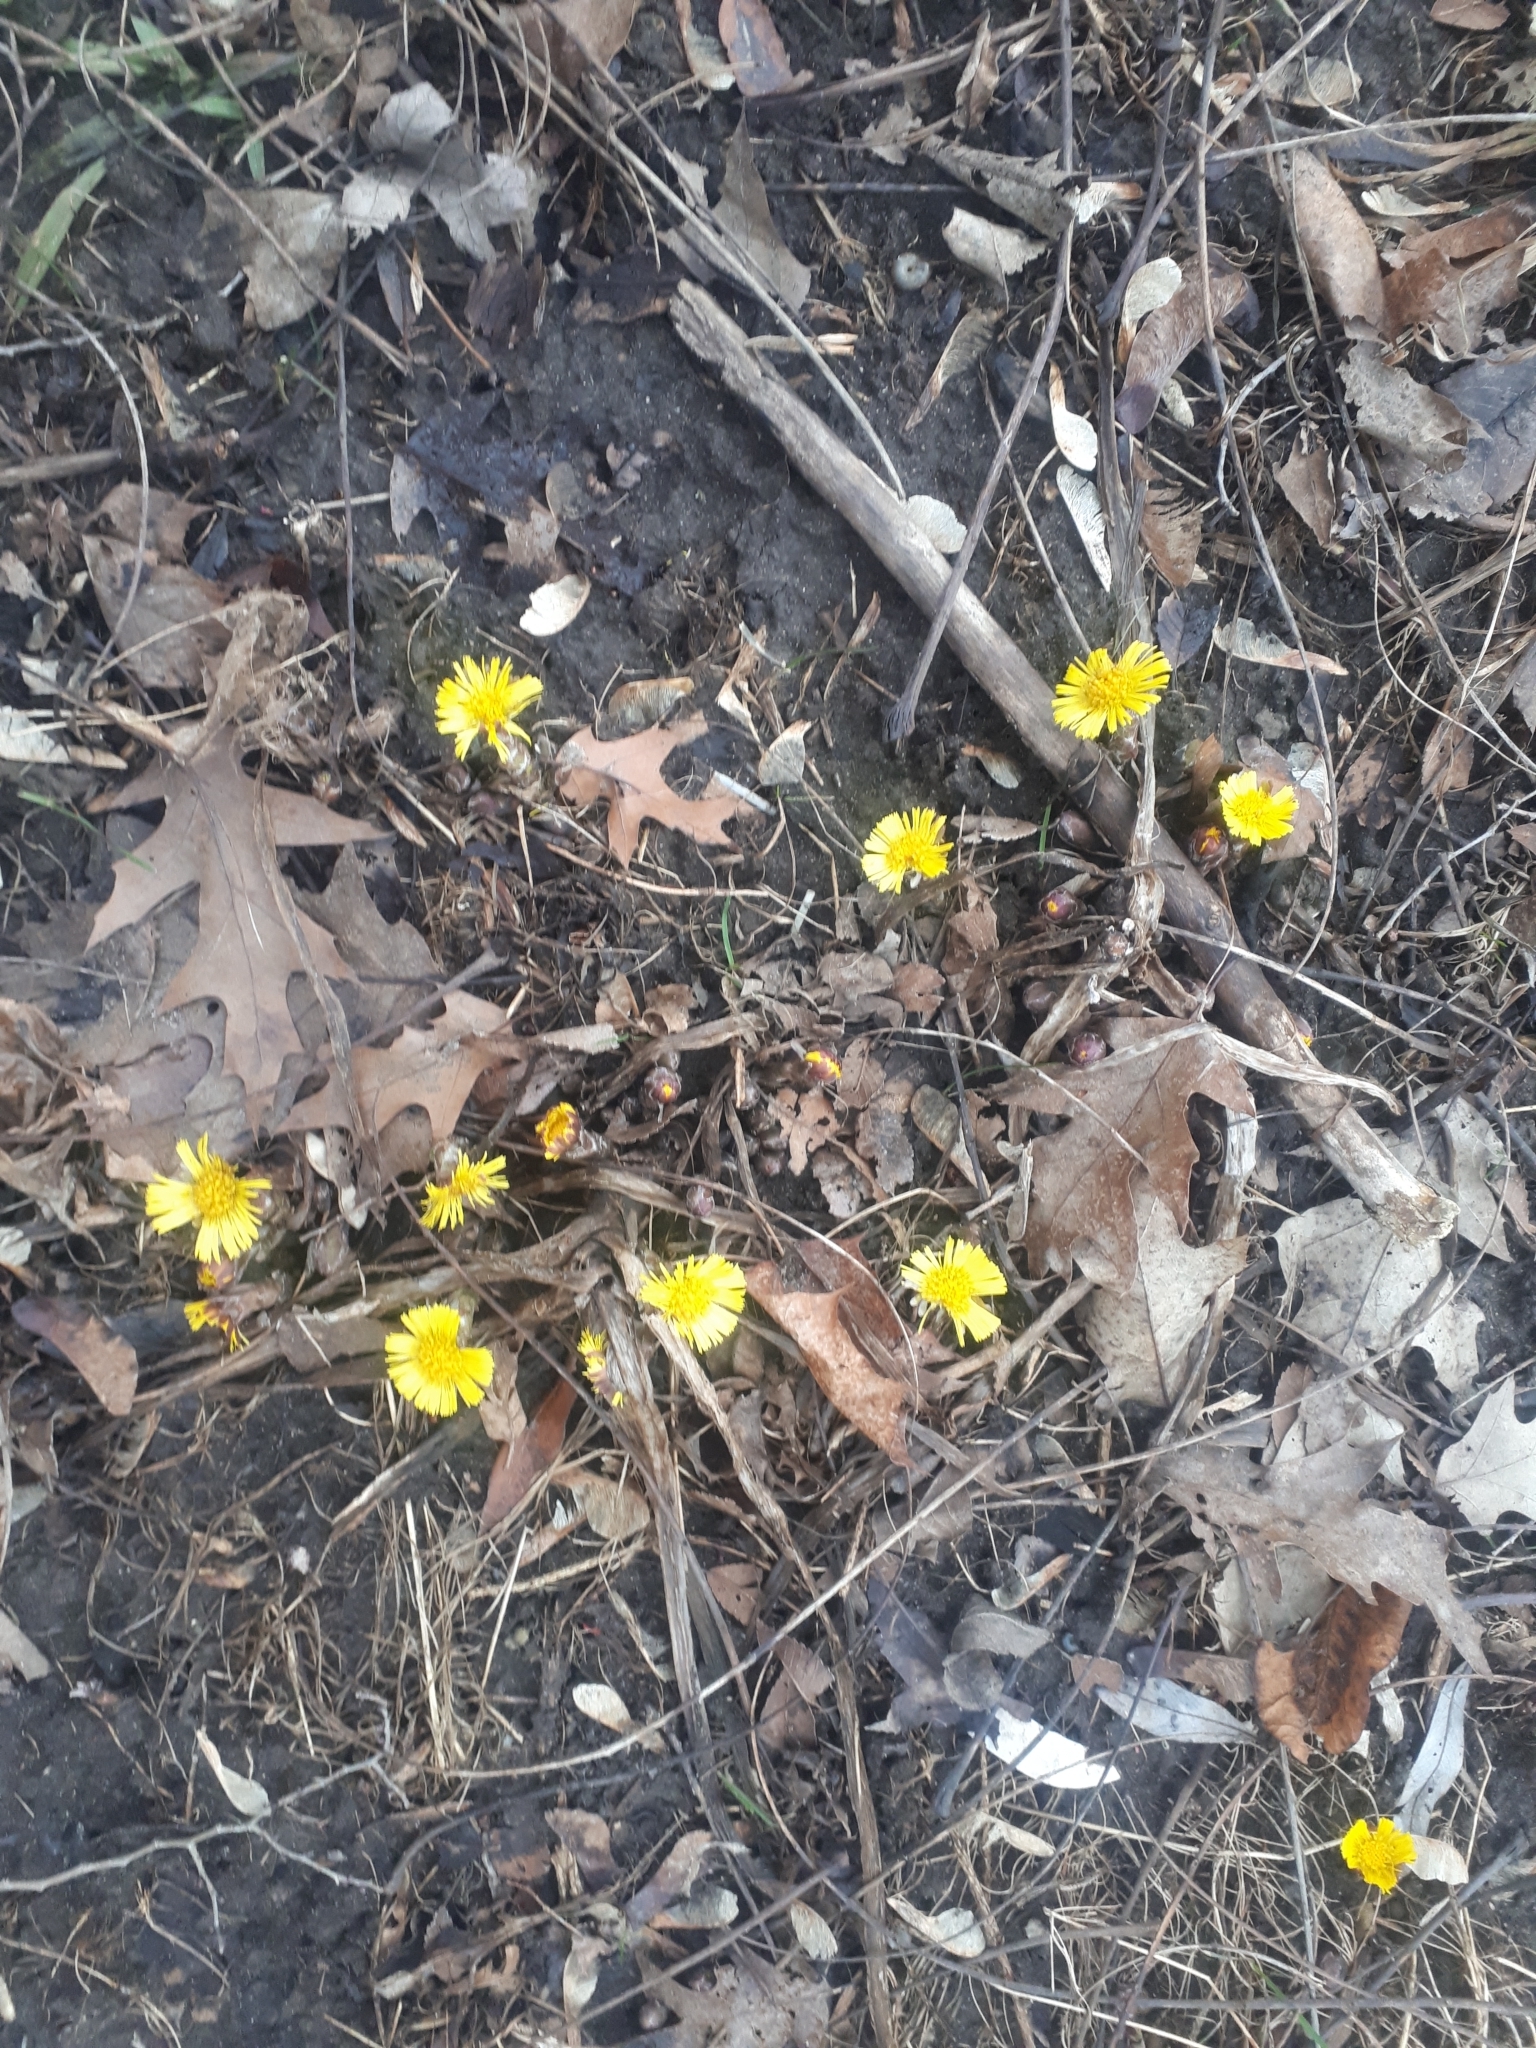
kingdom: Plantae
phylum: Tracheophyta
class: Magnoliopsida
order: Asterales
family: Asteraceae
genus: Tussilago
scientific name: Tussilago farfara
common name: Coltsfoot
